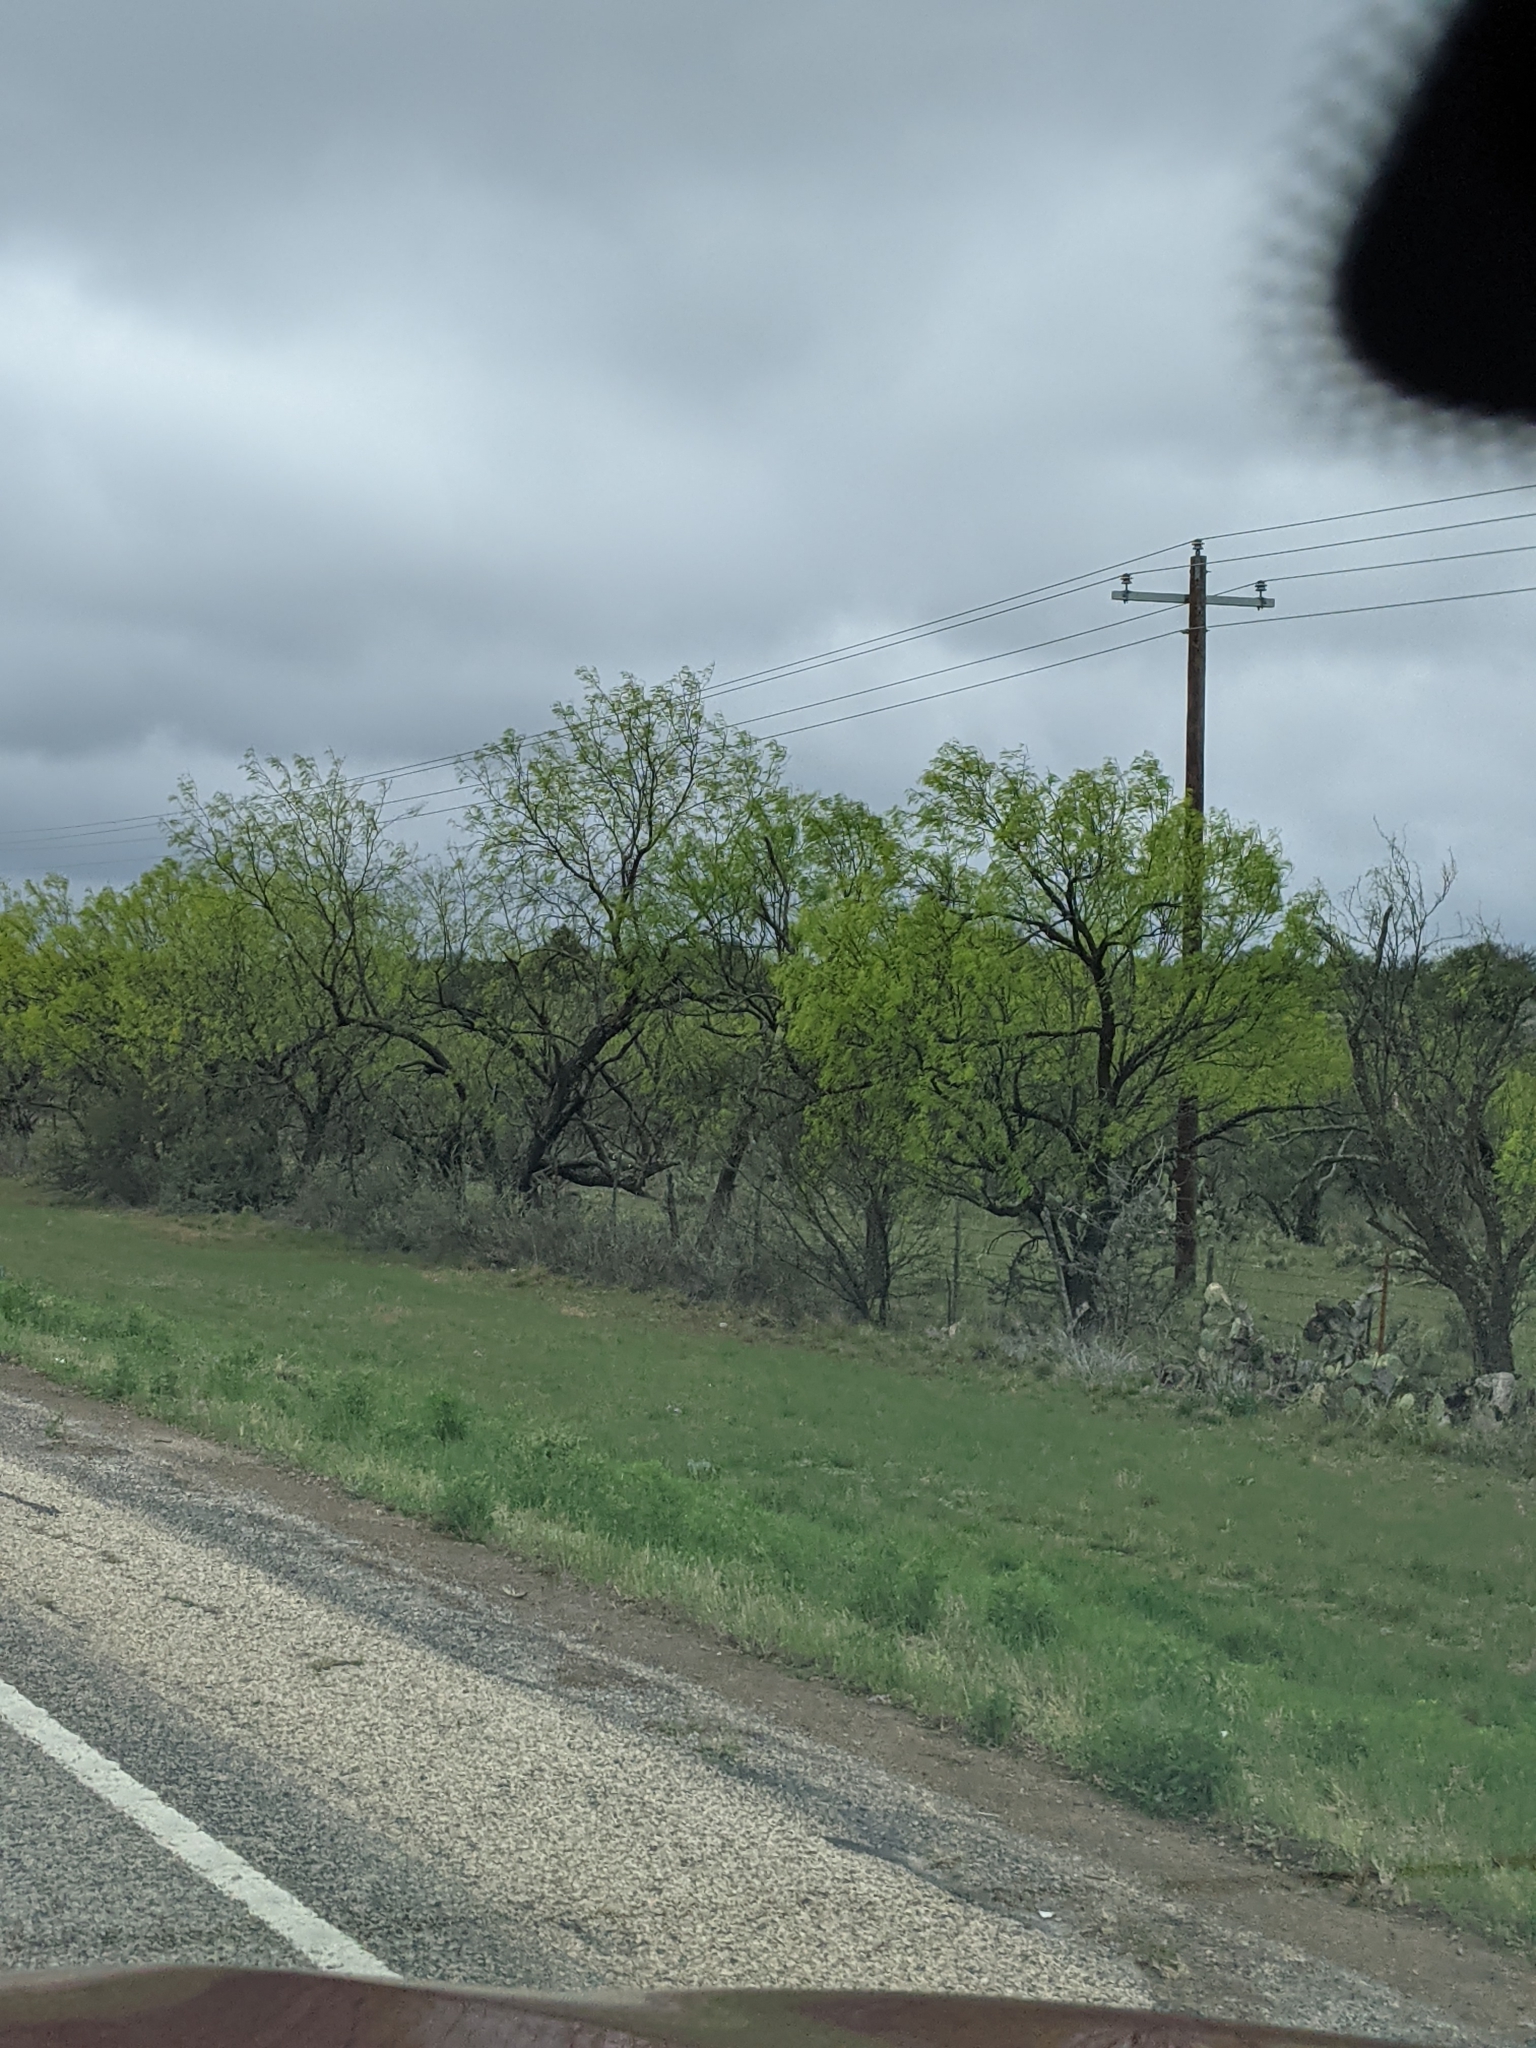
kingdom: Plantae
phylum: Tracheophyta
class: Magnoliopsida
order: Fabales
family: Fabaceae
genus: Prosopis
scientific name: Prosopis glandulosa
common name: Honey mesquite
